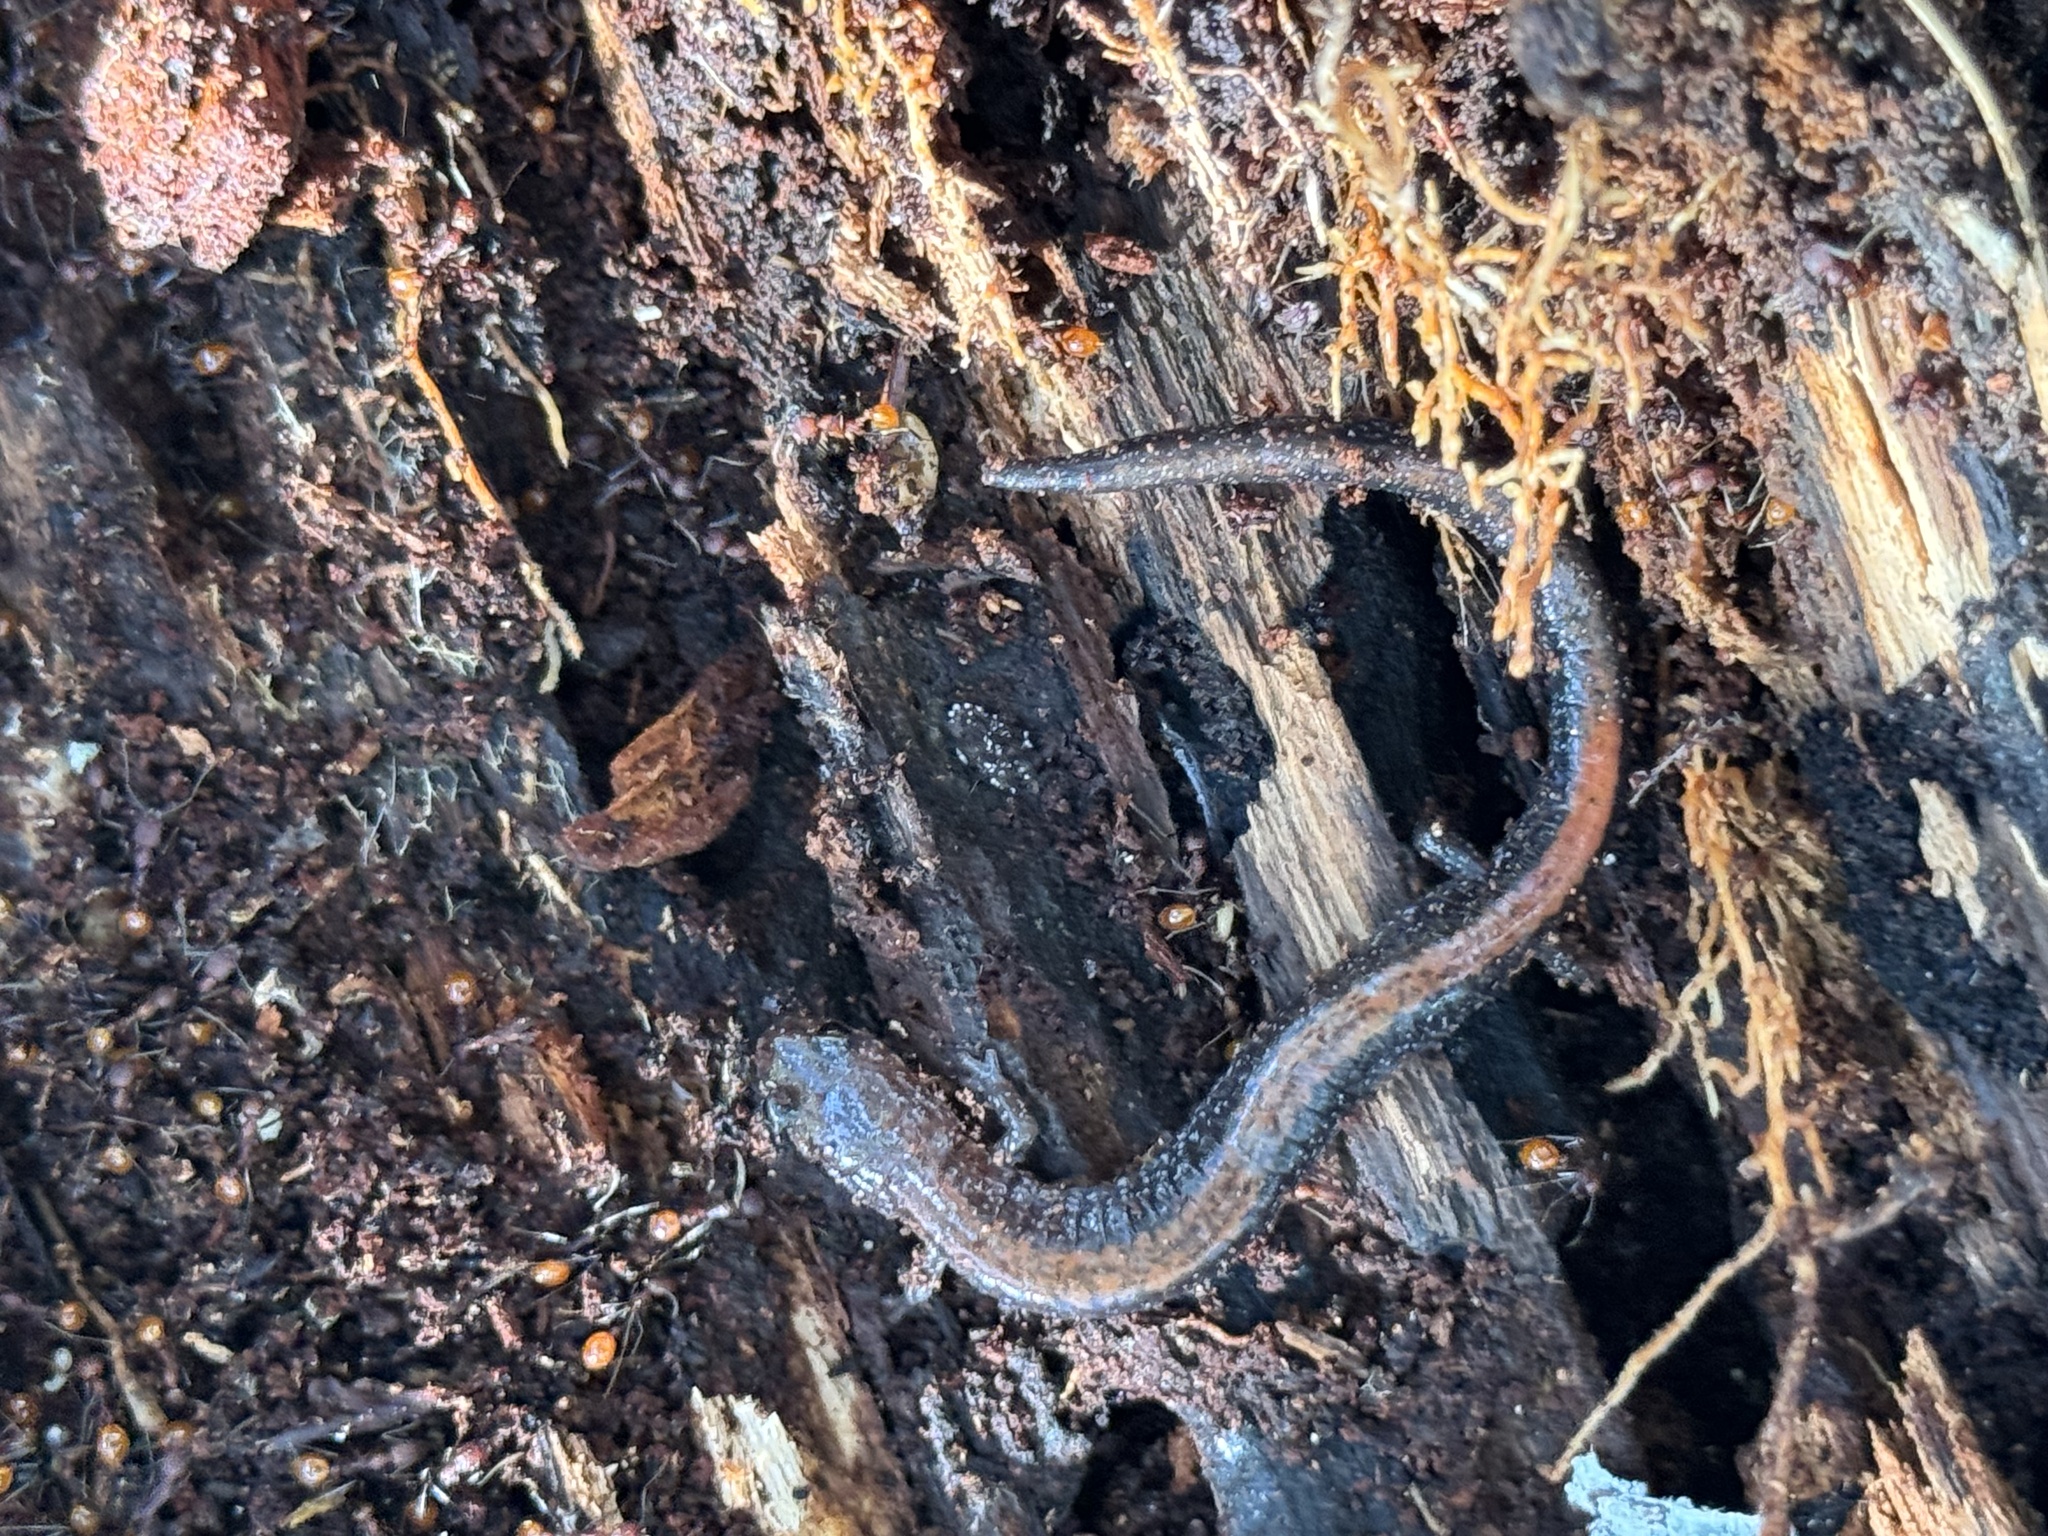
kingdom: Animalia
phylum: Chordata
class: Amphibia
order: Caudata
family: Plethodontidae
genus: Plethodon
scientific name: Plethodon cinereus
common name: Redback salamander
